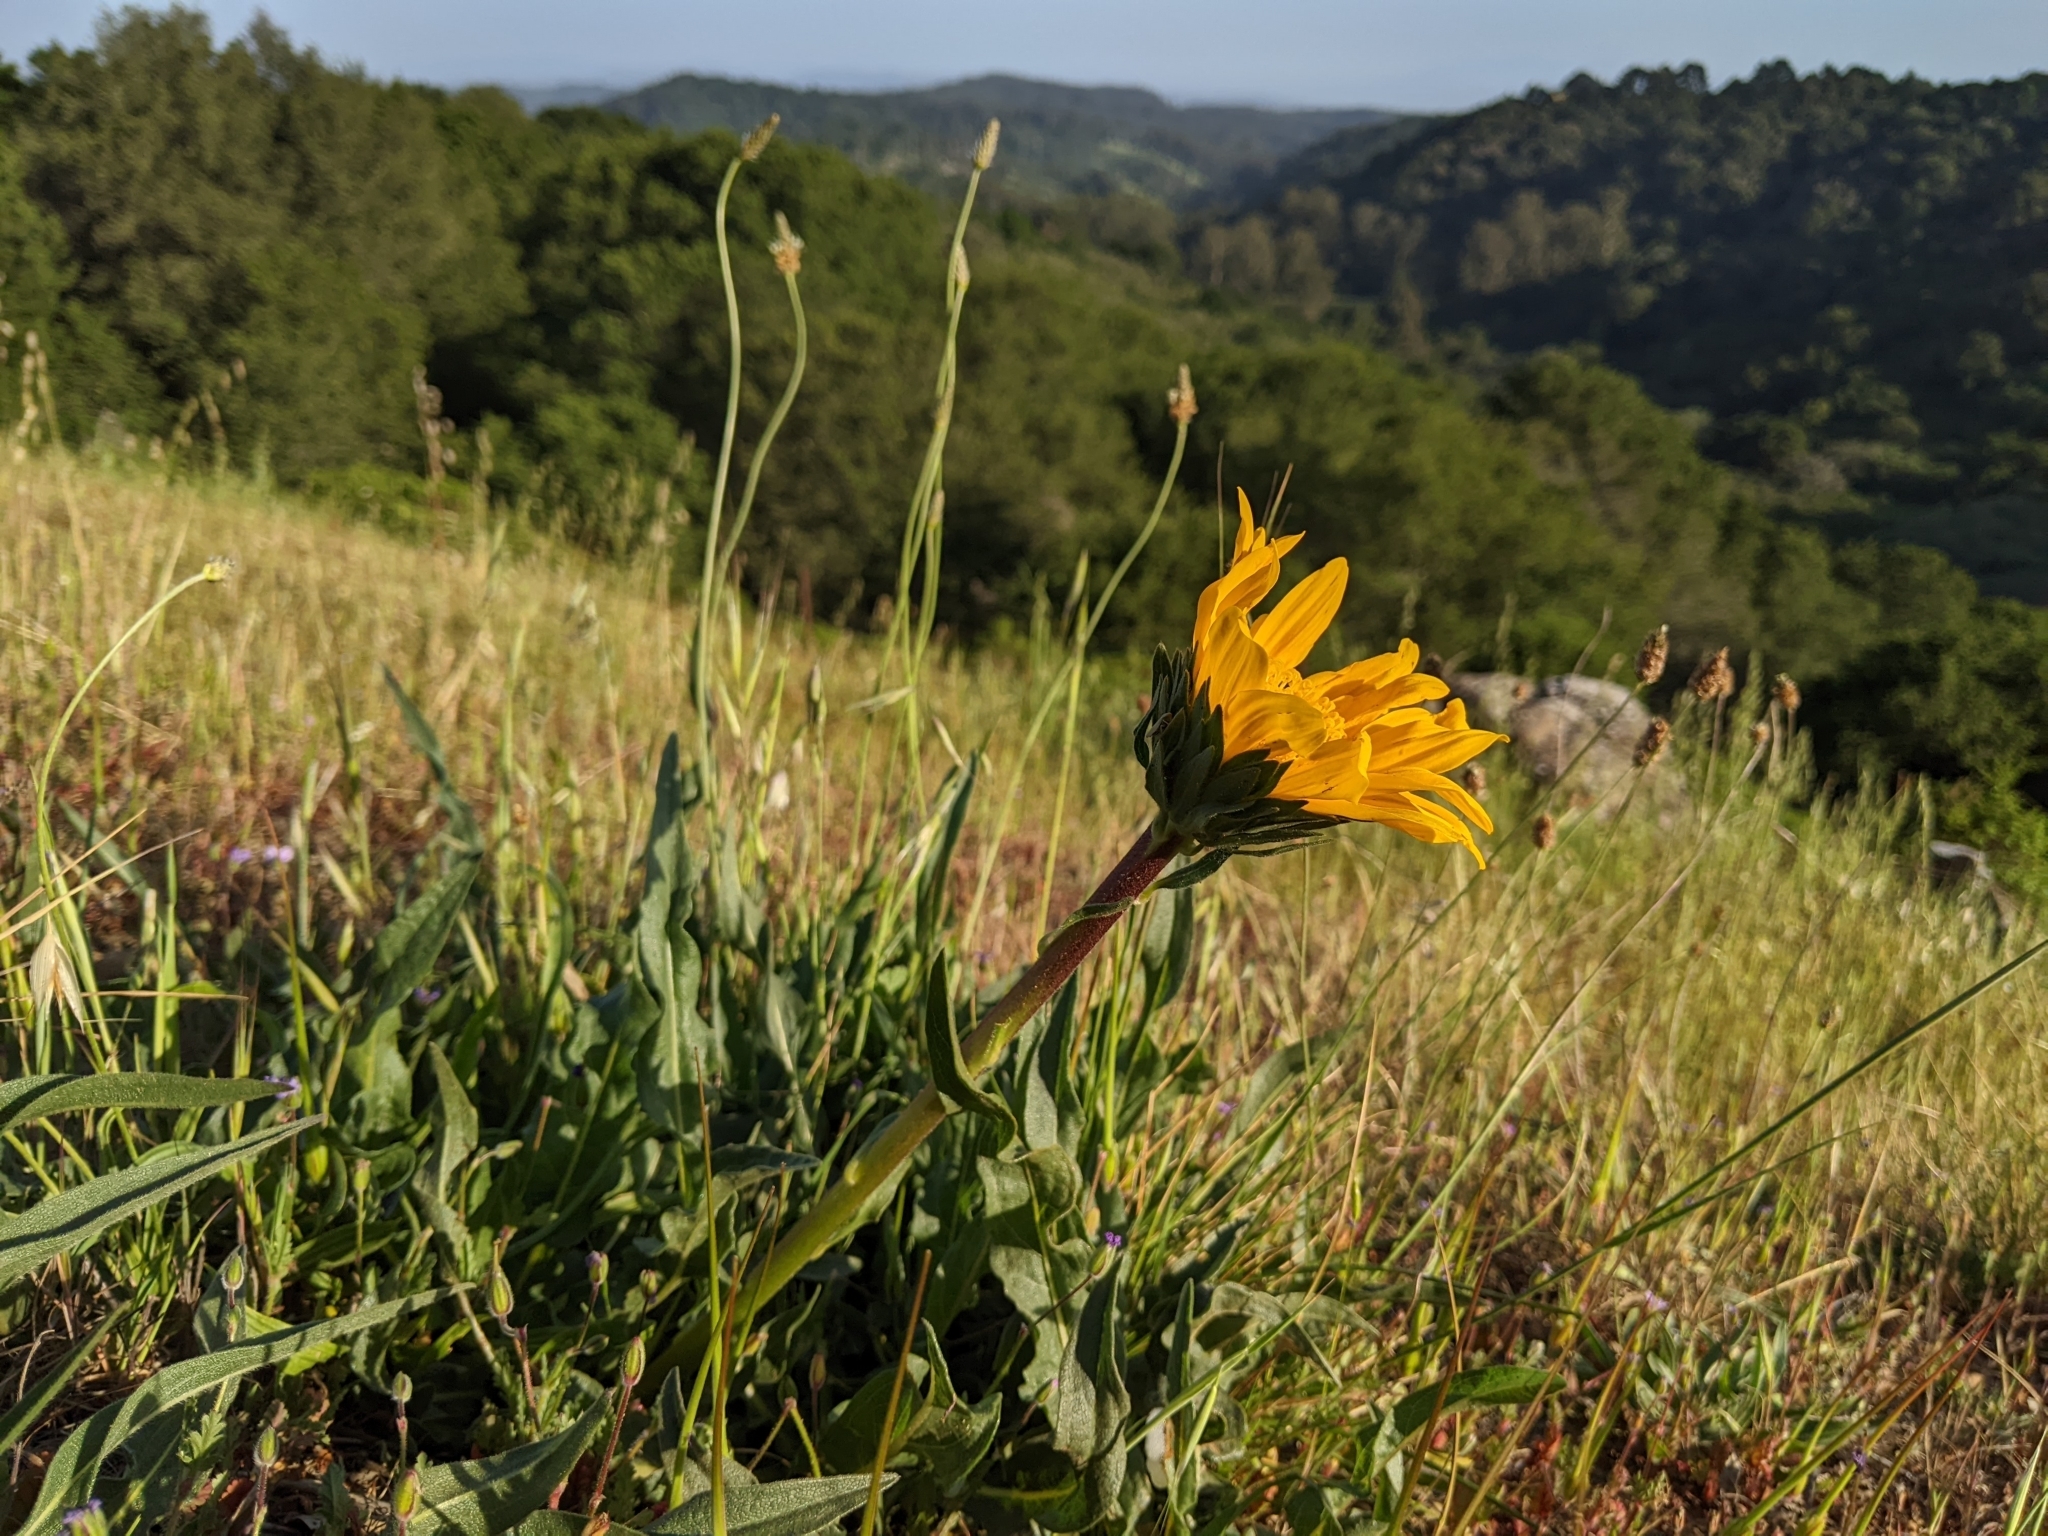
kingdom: Plantae
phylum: Tracheophyta
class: Magnoliopsida
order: Asterales
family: Asteraceae
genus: Wyethia
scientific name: Wyethia angustifolia
